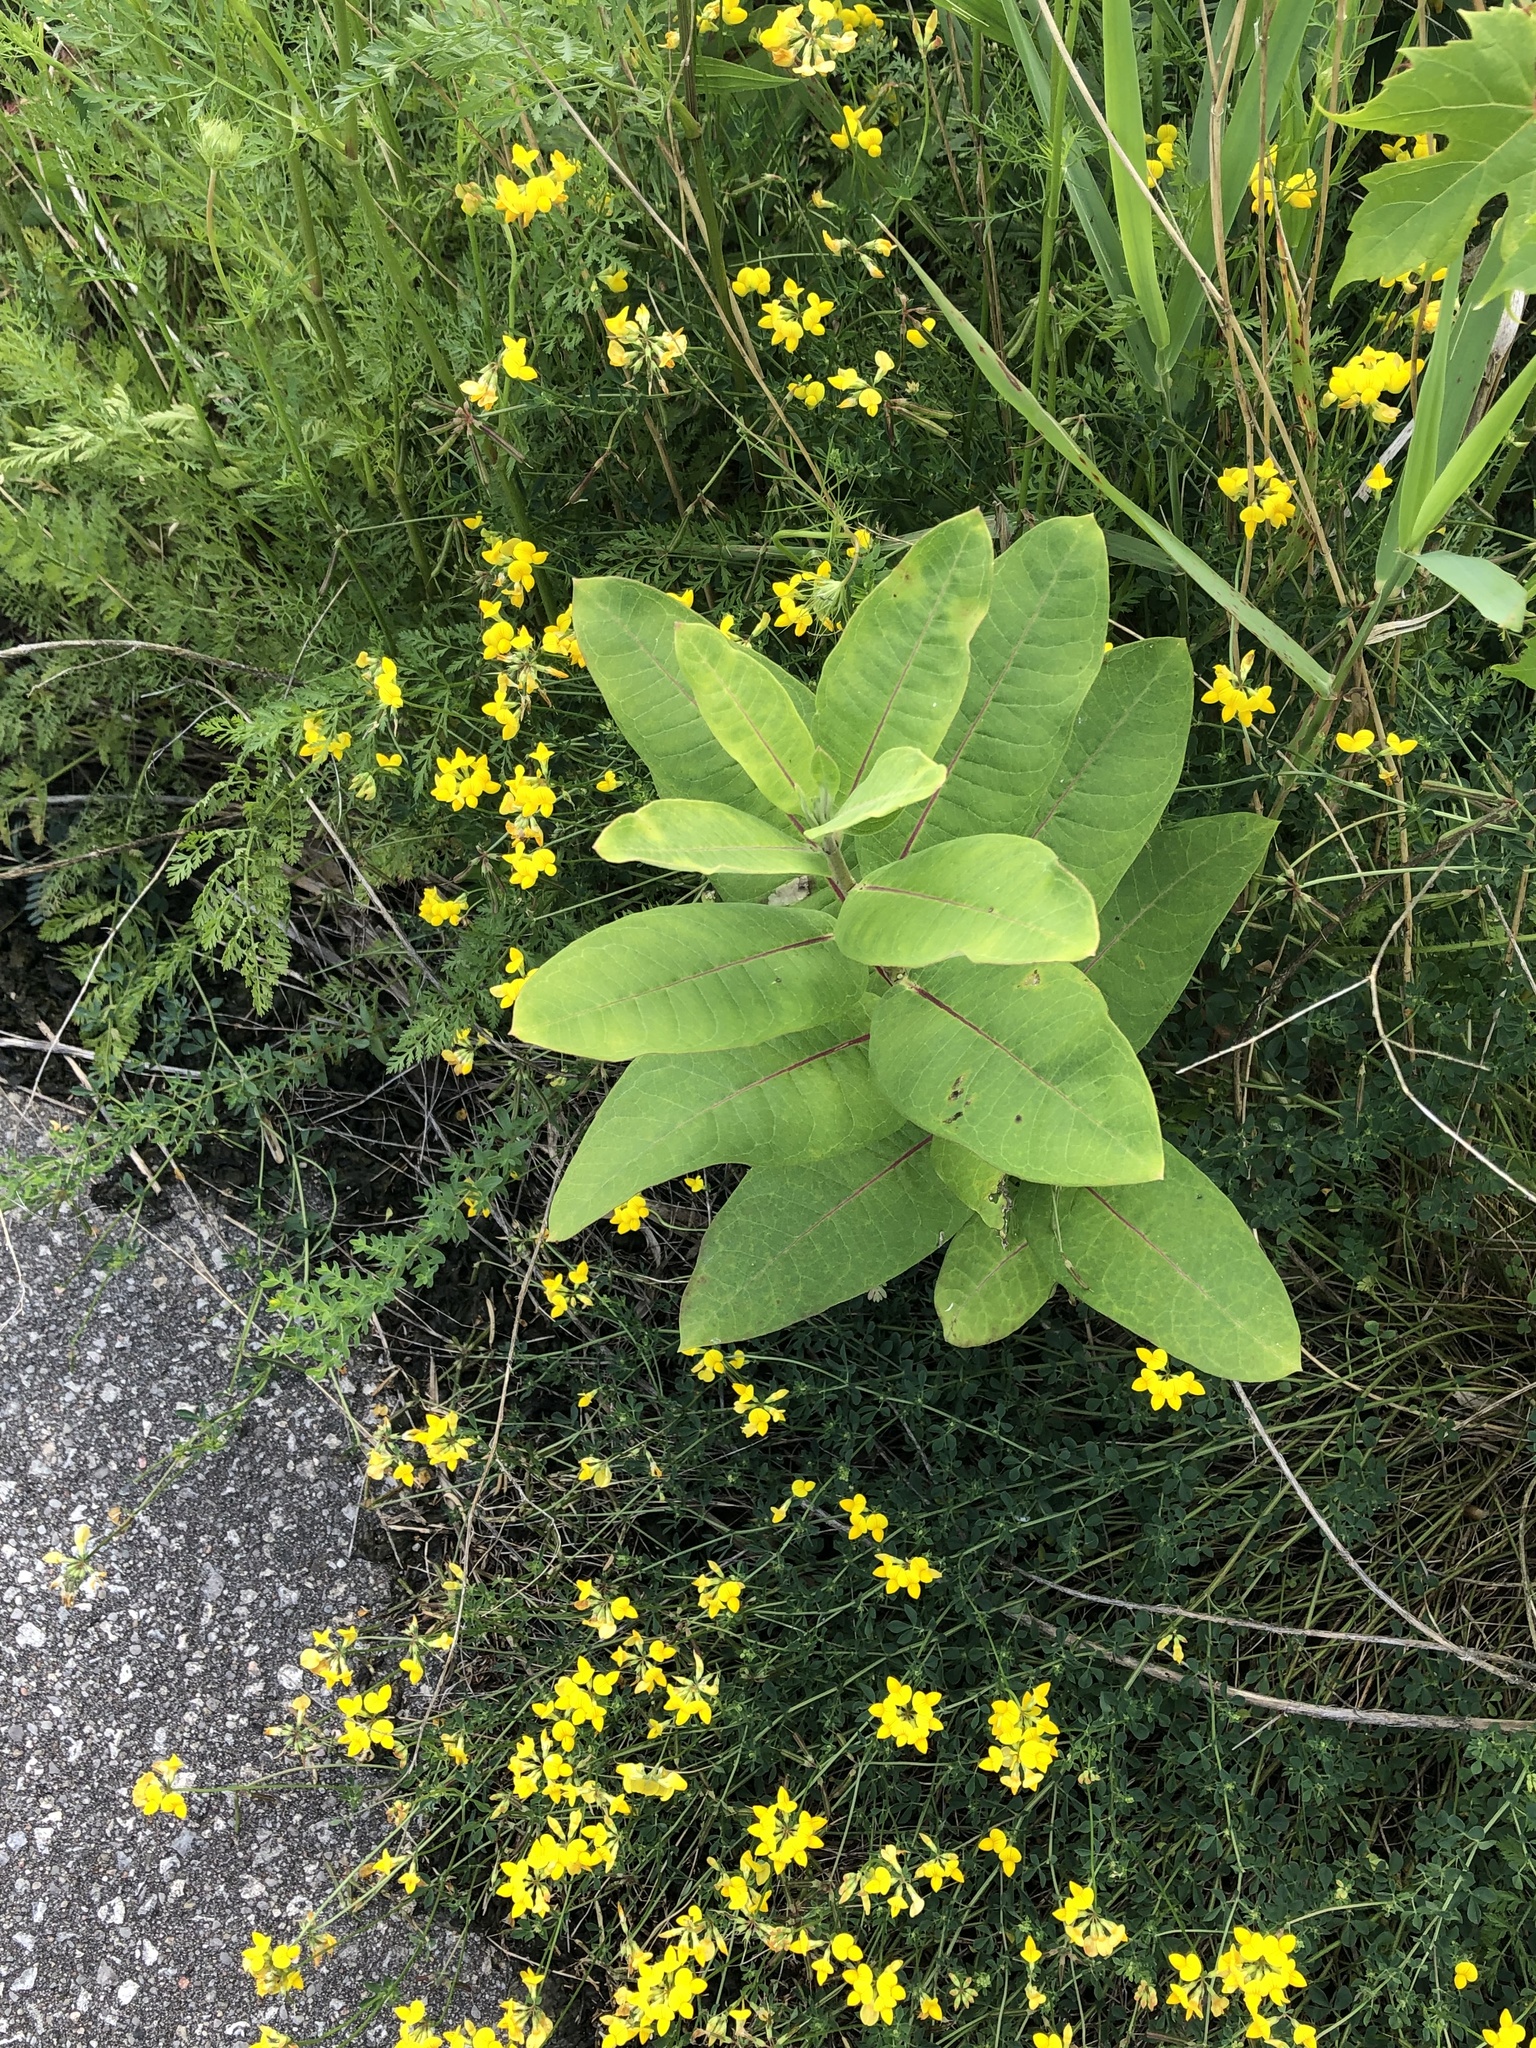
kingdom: Plantae
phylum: Tracheophyta
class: Magnoliopsida
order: Gentianales
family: Apocynaceae
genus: Asclepias
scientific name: Asclepias syriaca
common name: Common milkweed
